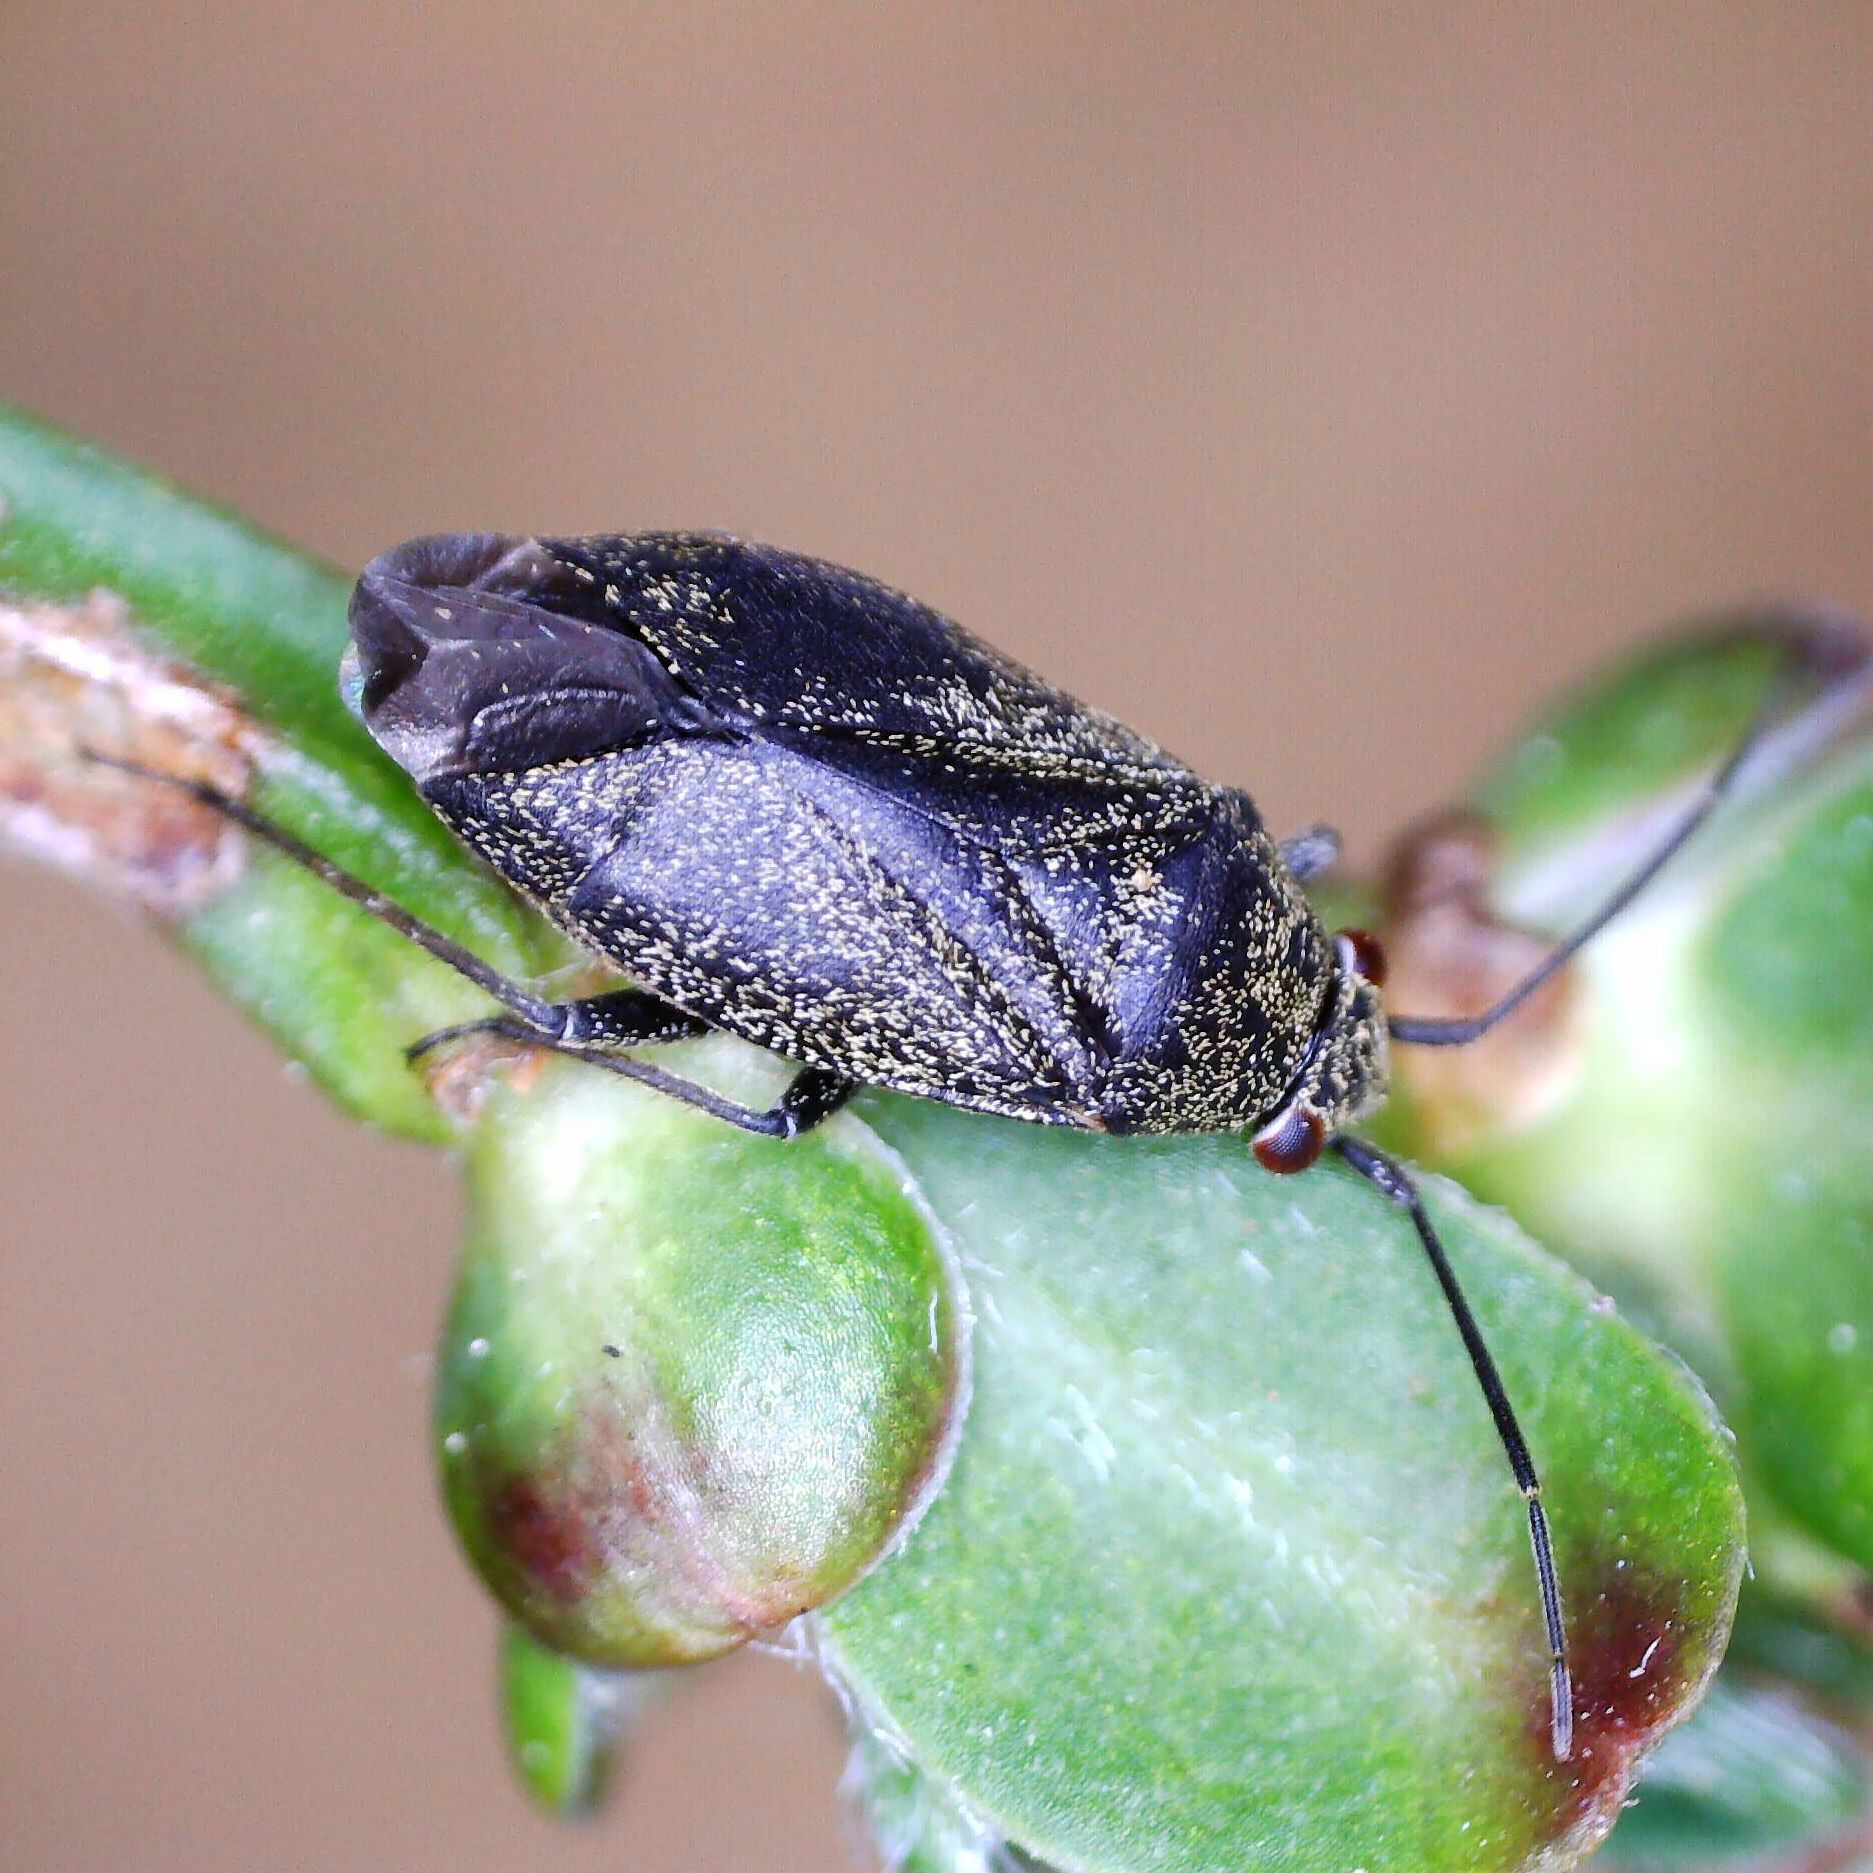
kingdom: Animalia
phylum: Arthropoda
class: Insecta
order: Hemiptera
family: Miridae
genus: Heterocordylus
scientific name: Heterocordylus tibialis
